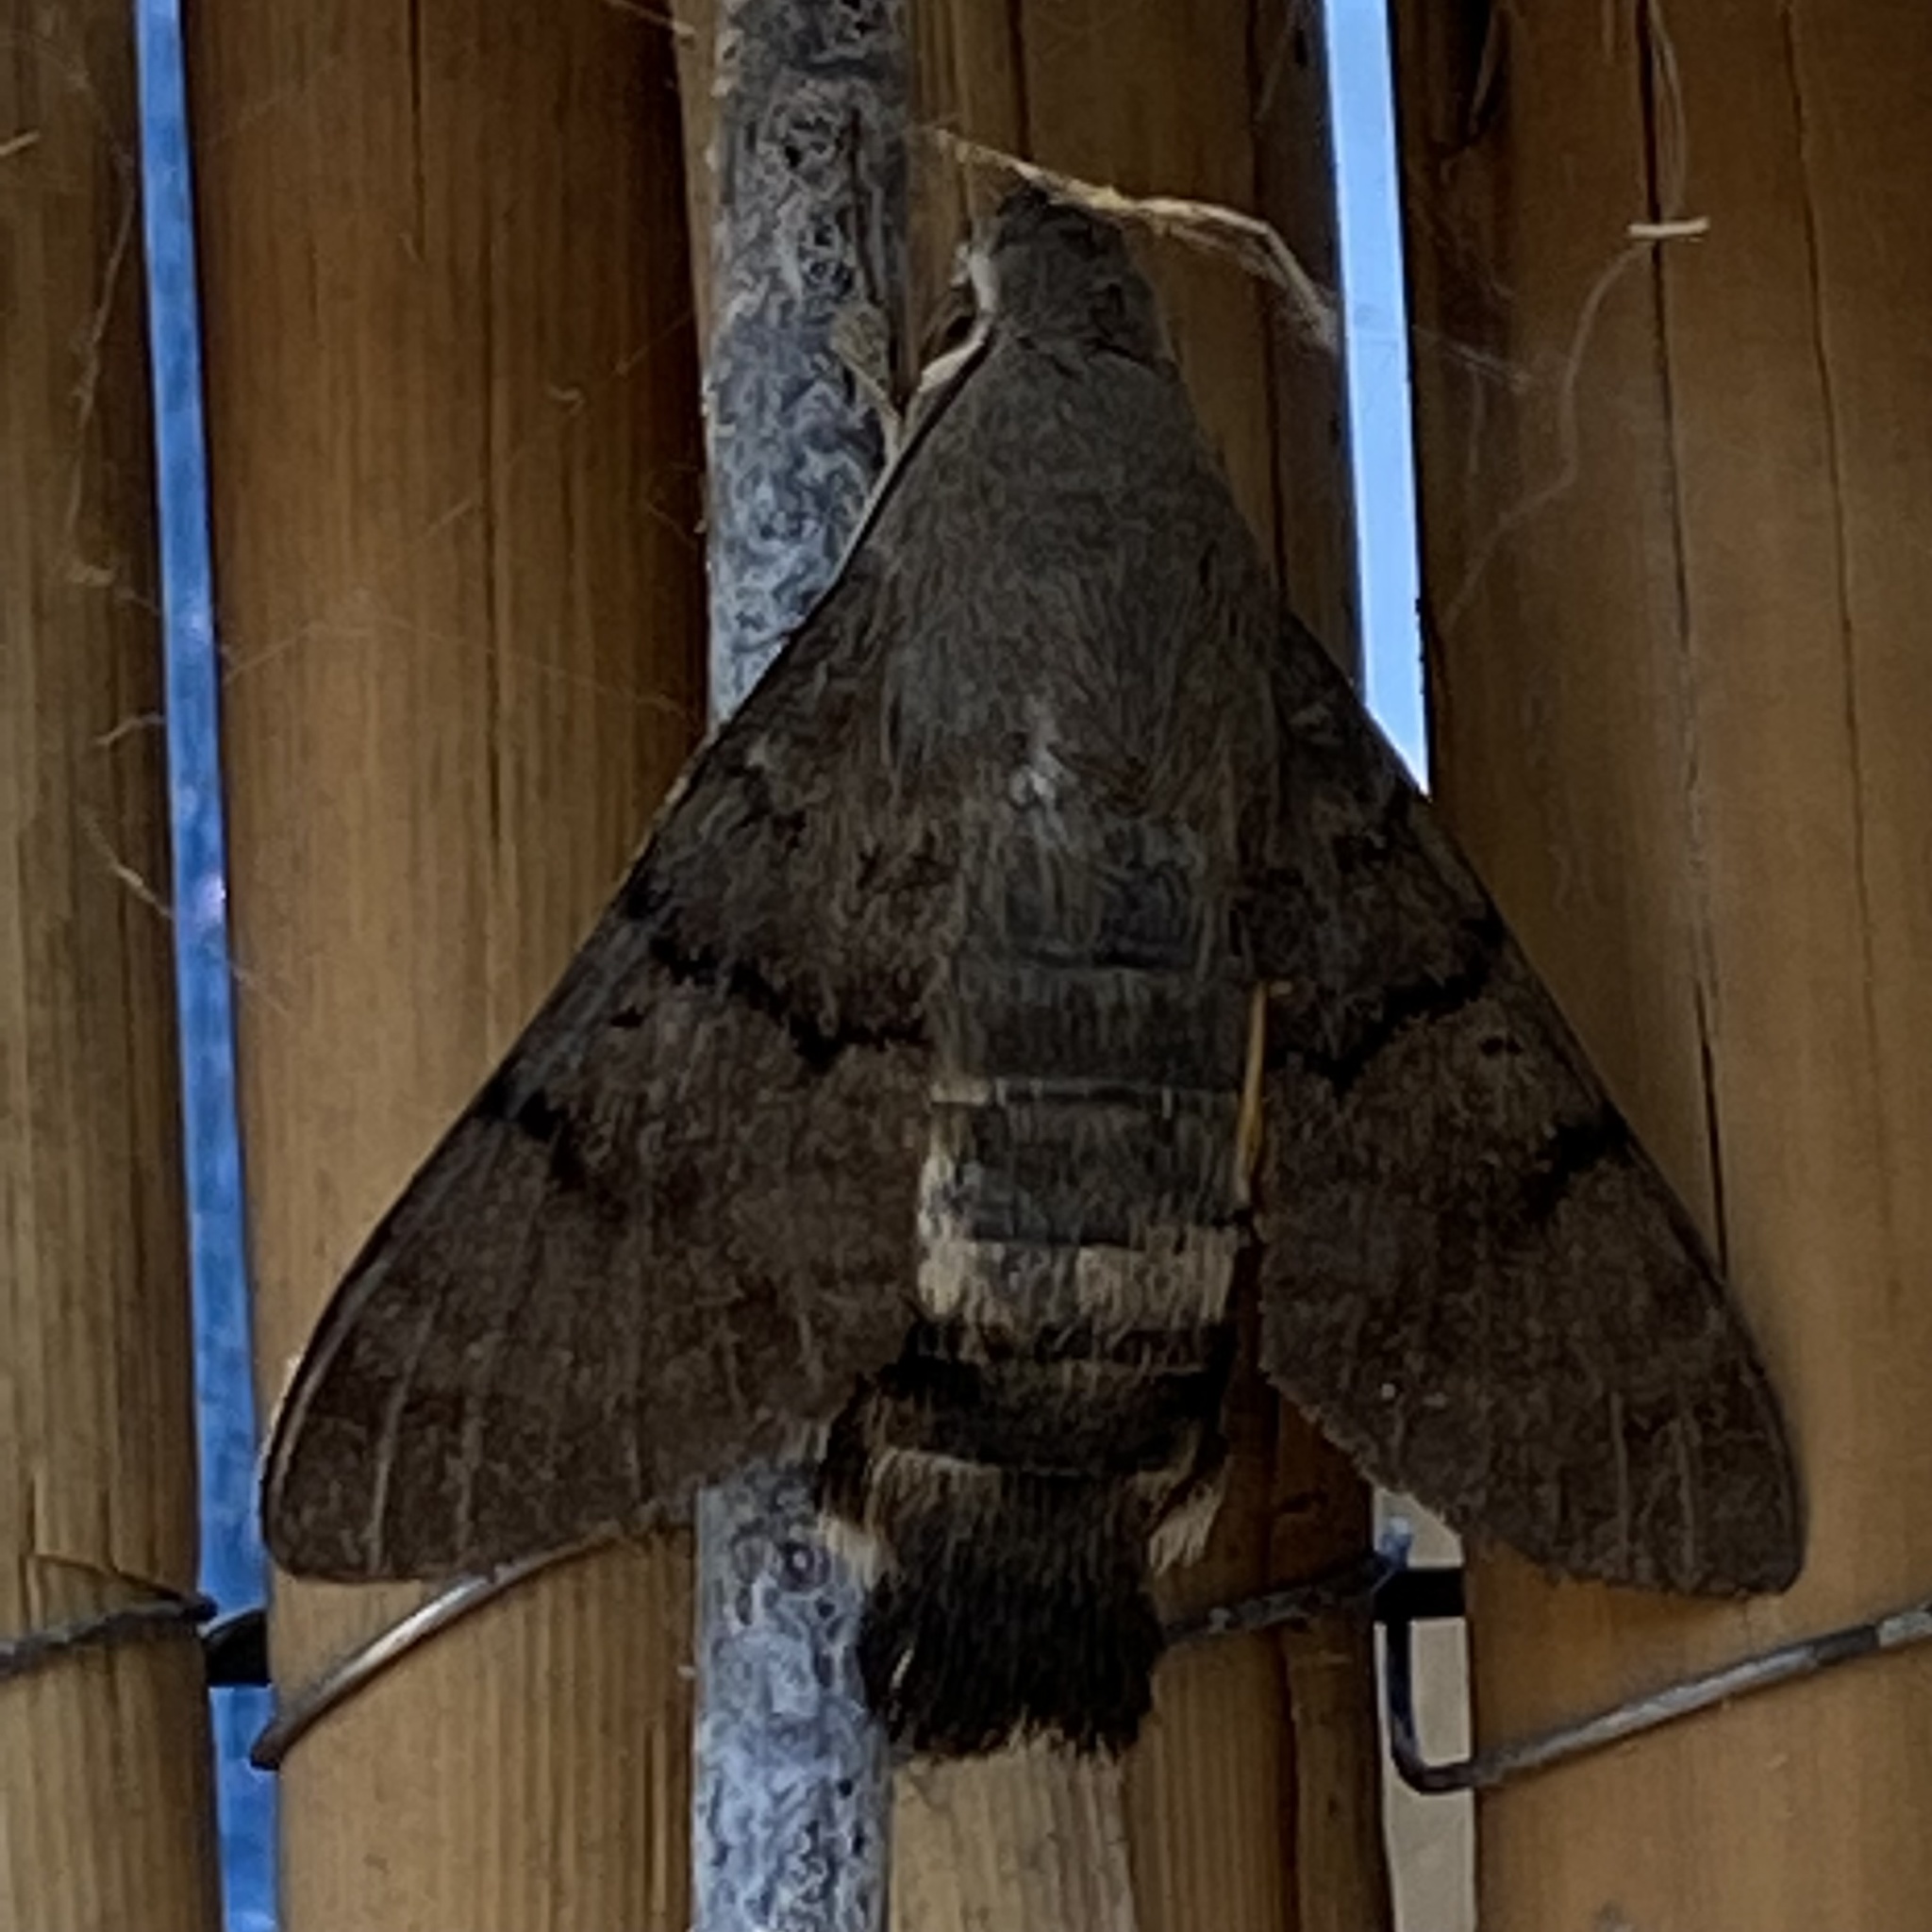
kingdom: Animalia
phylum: Arthropoda
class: Insecta
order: Lepidoptera
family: Sphingidae
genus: Macroglossum
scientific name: Macroglossum stellatarum
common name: Humming-bird hawk-moth
